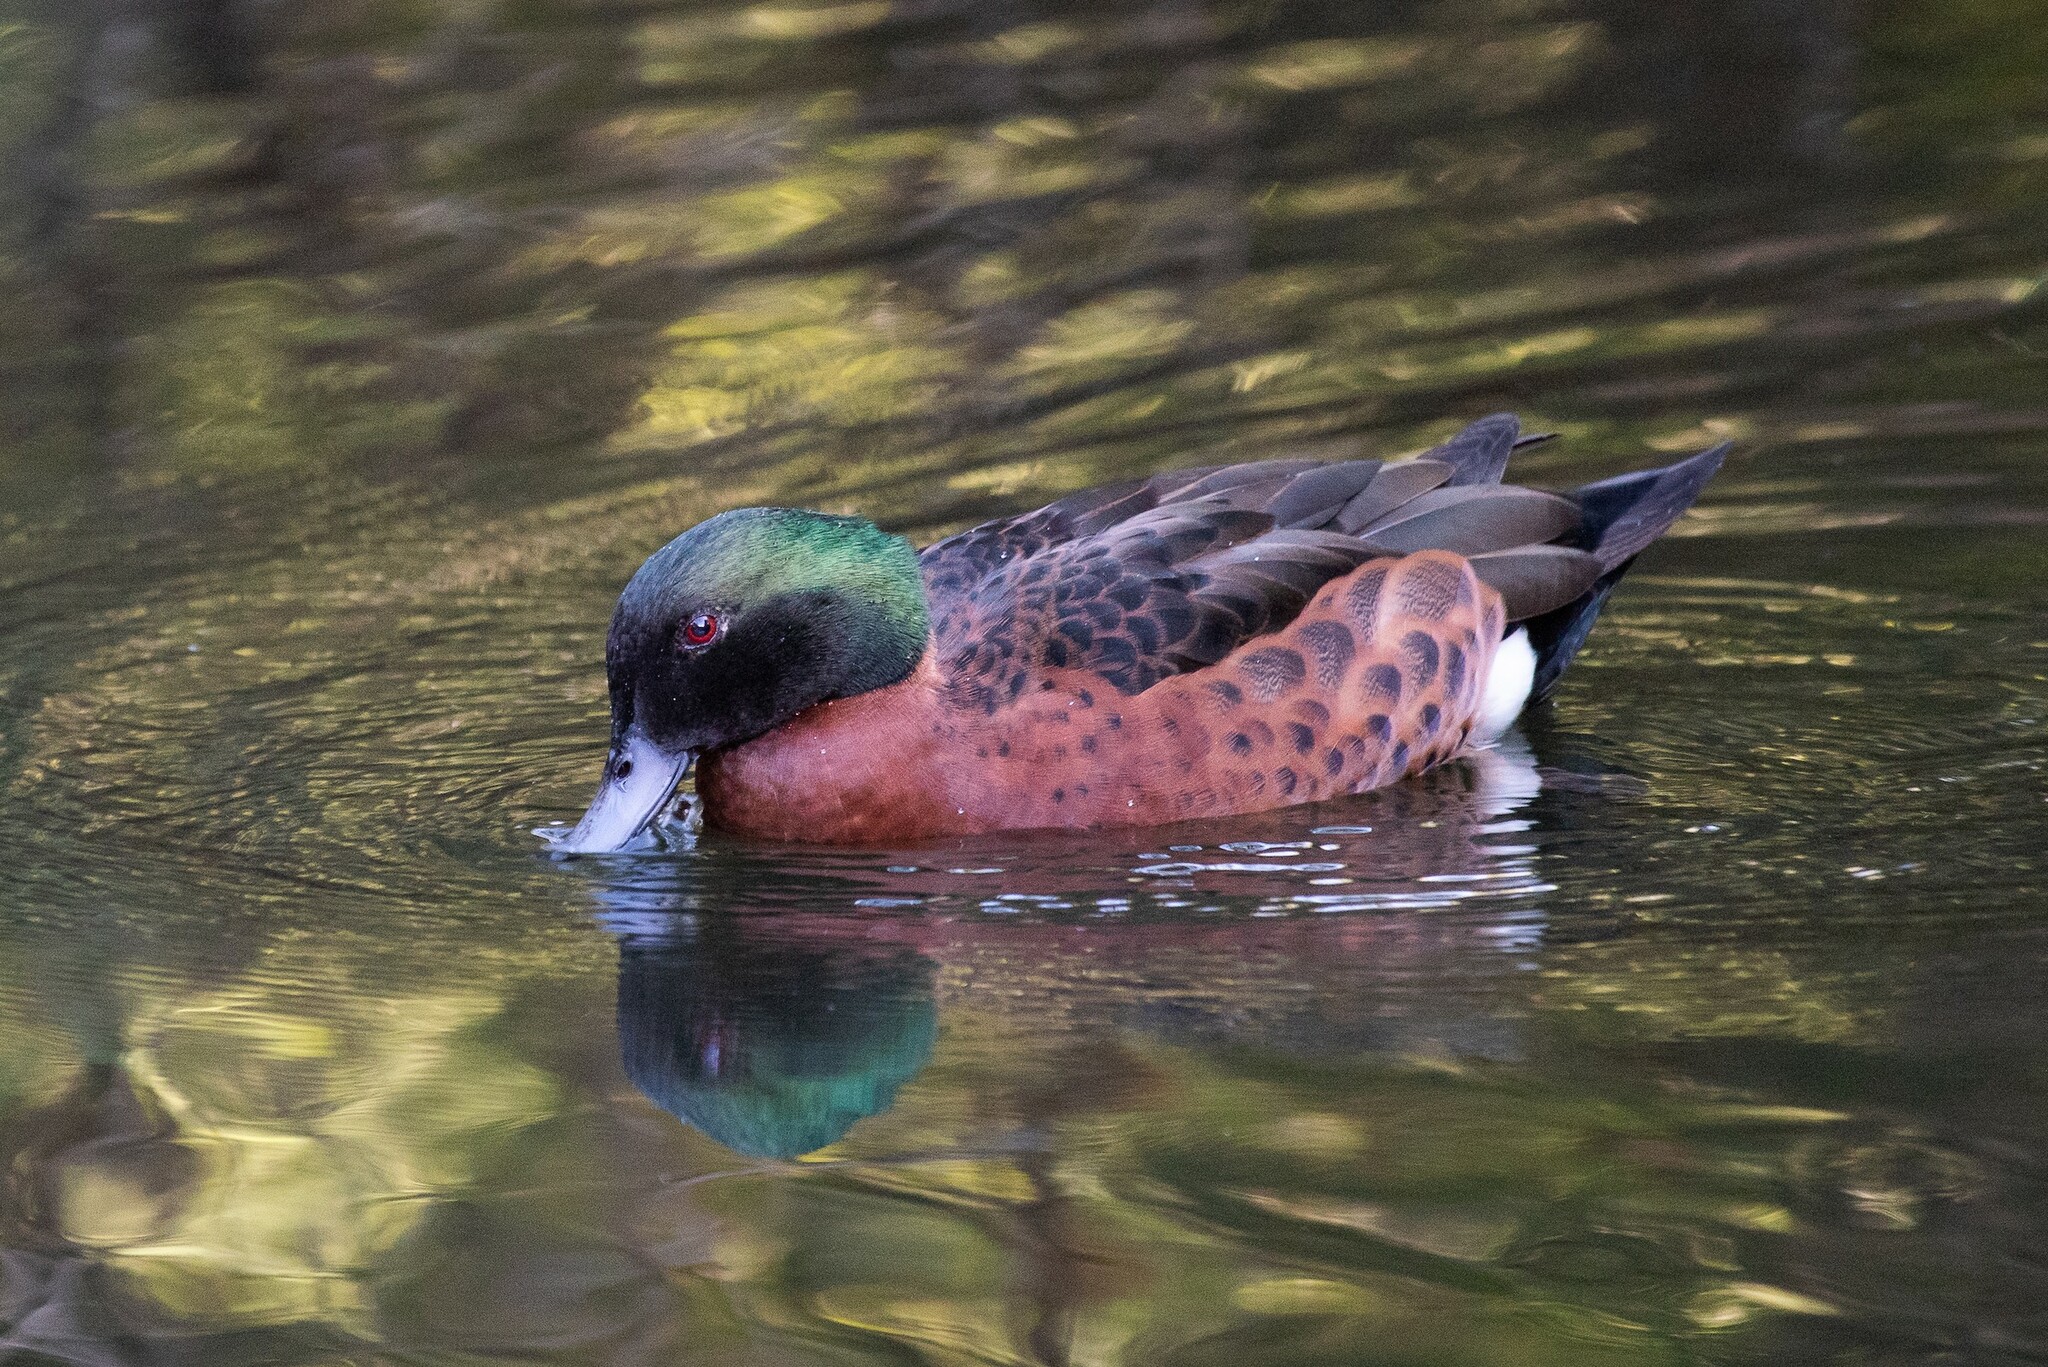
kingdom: Animalia
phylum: Chordata
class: Aves
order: Anseriformes
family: Anatidae
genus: Anas
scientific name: Anas castanea
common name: Chestnut teal
